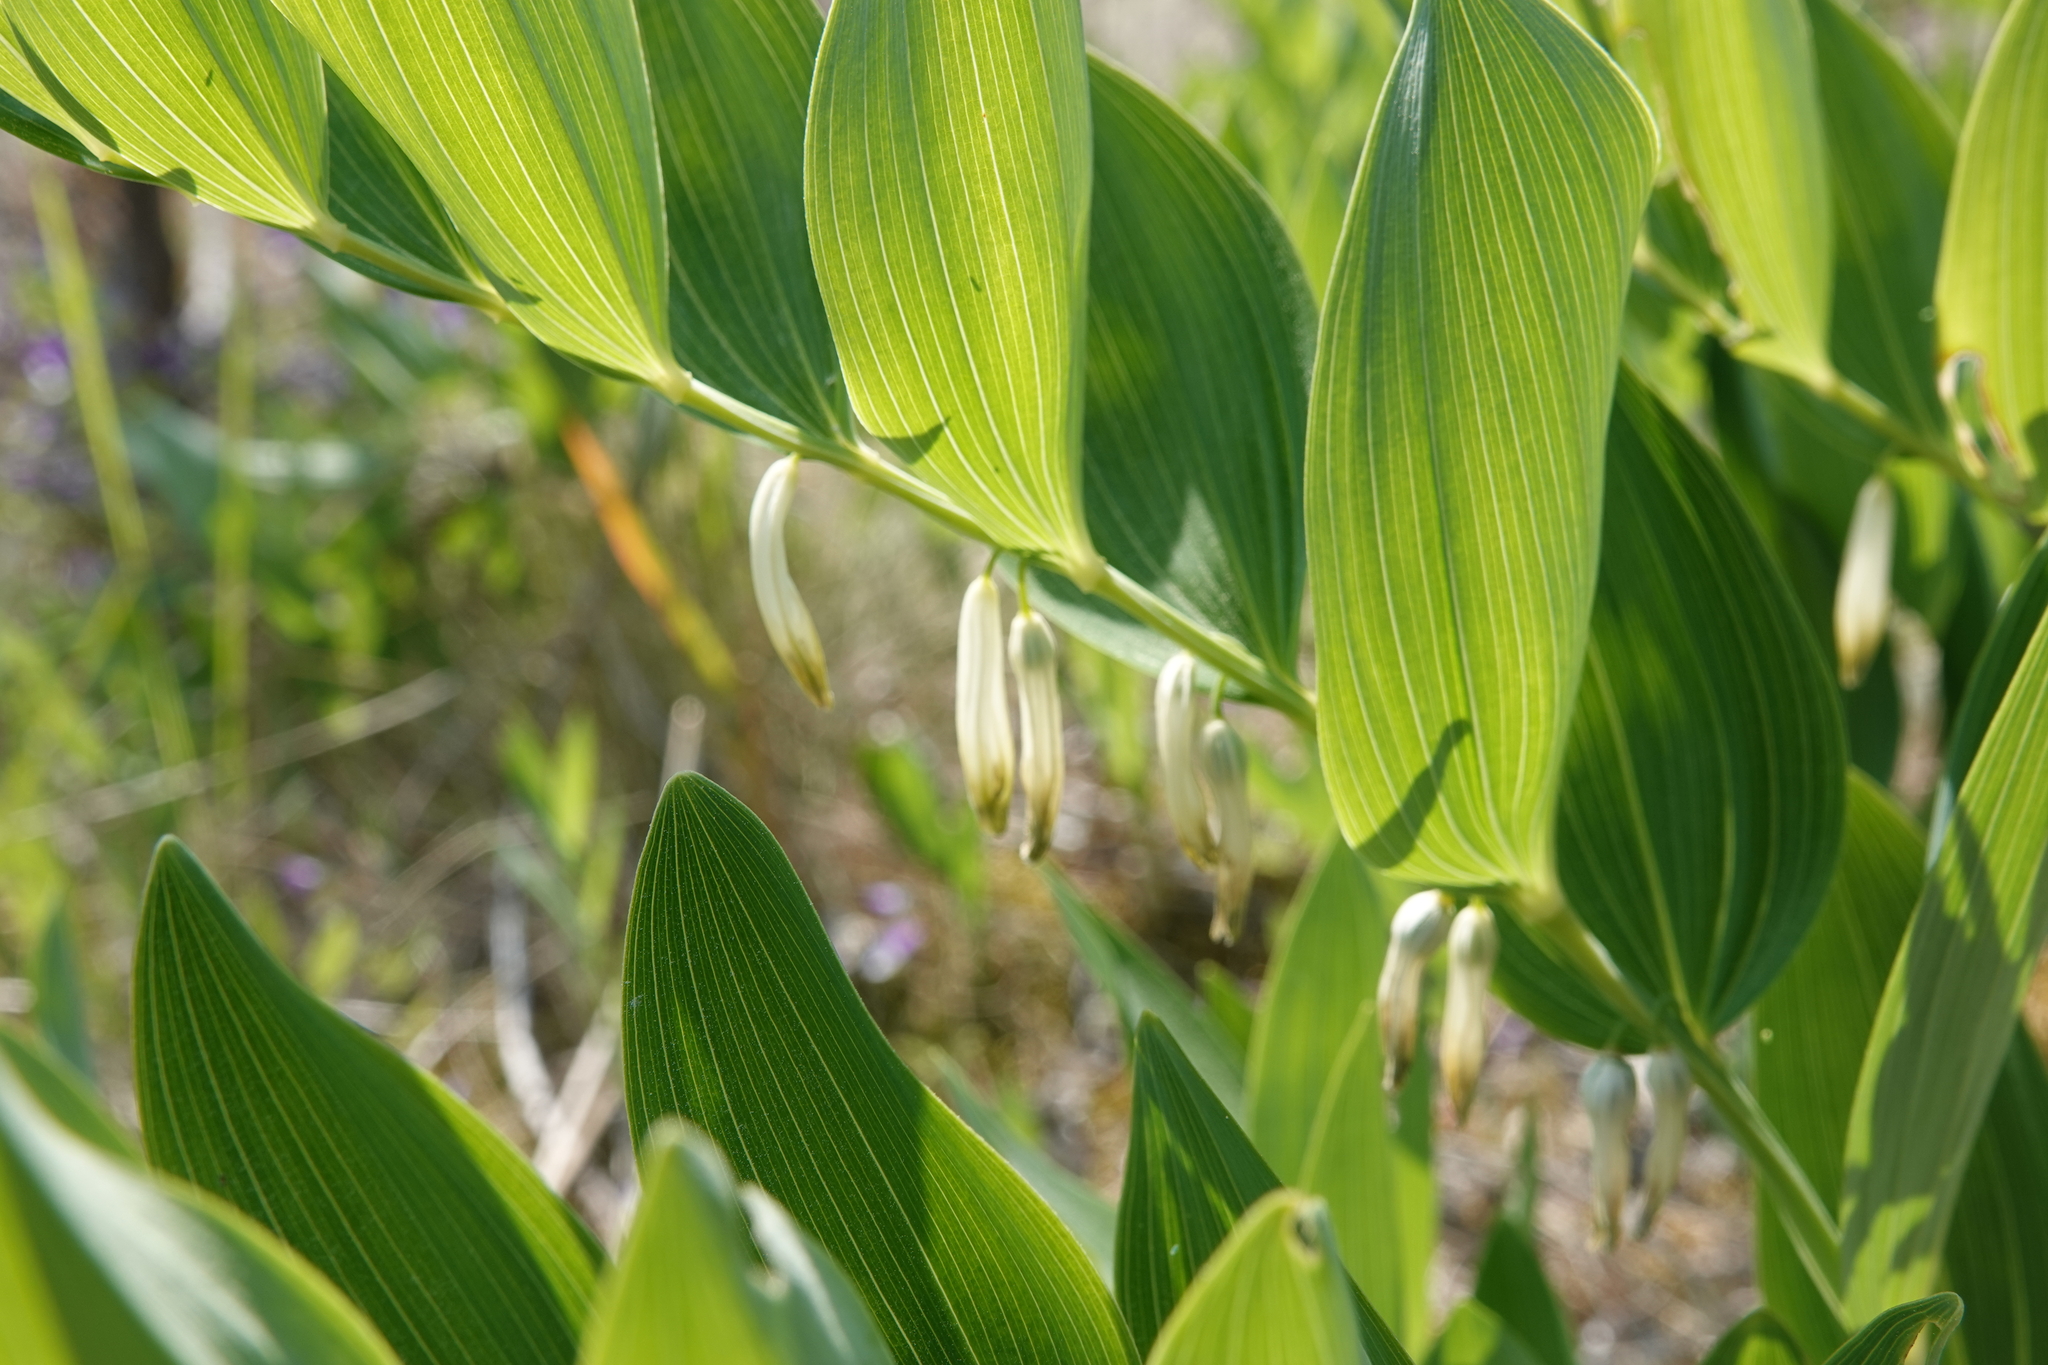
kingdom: Plantae
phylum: Tracheophyta
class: Liliopsida
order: Asparagales
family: Asparagaceae
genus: Polygonatum
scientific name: Polygonatum odoratum
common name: Angular solomon's-seal
